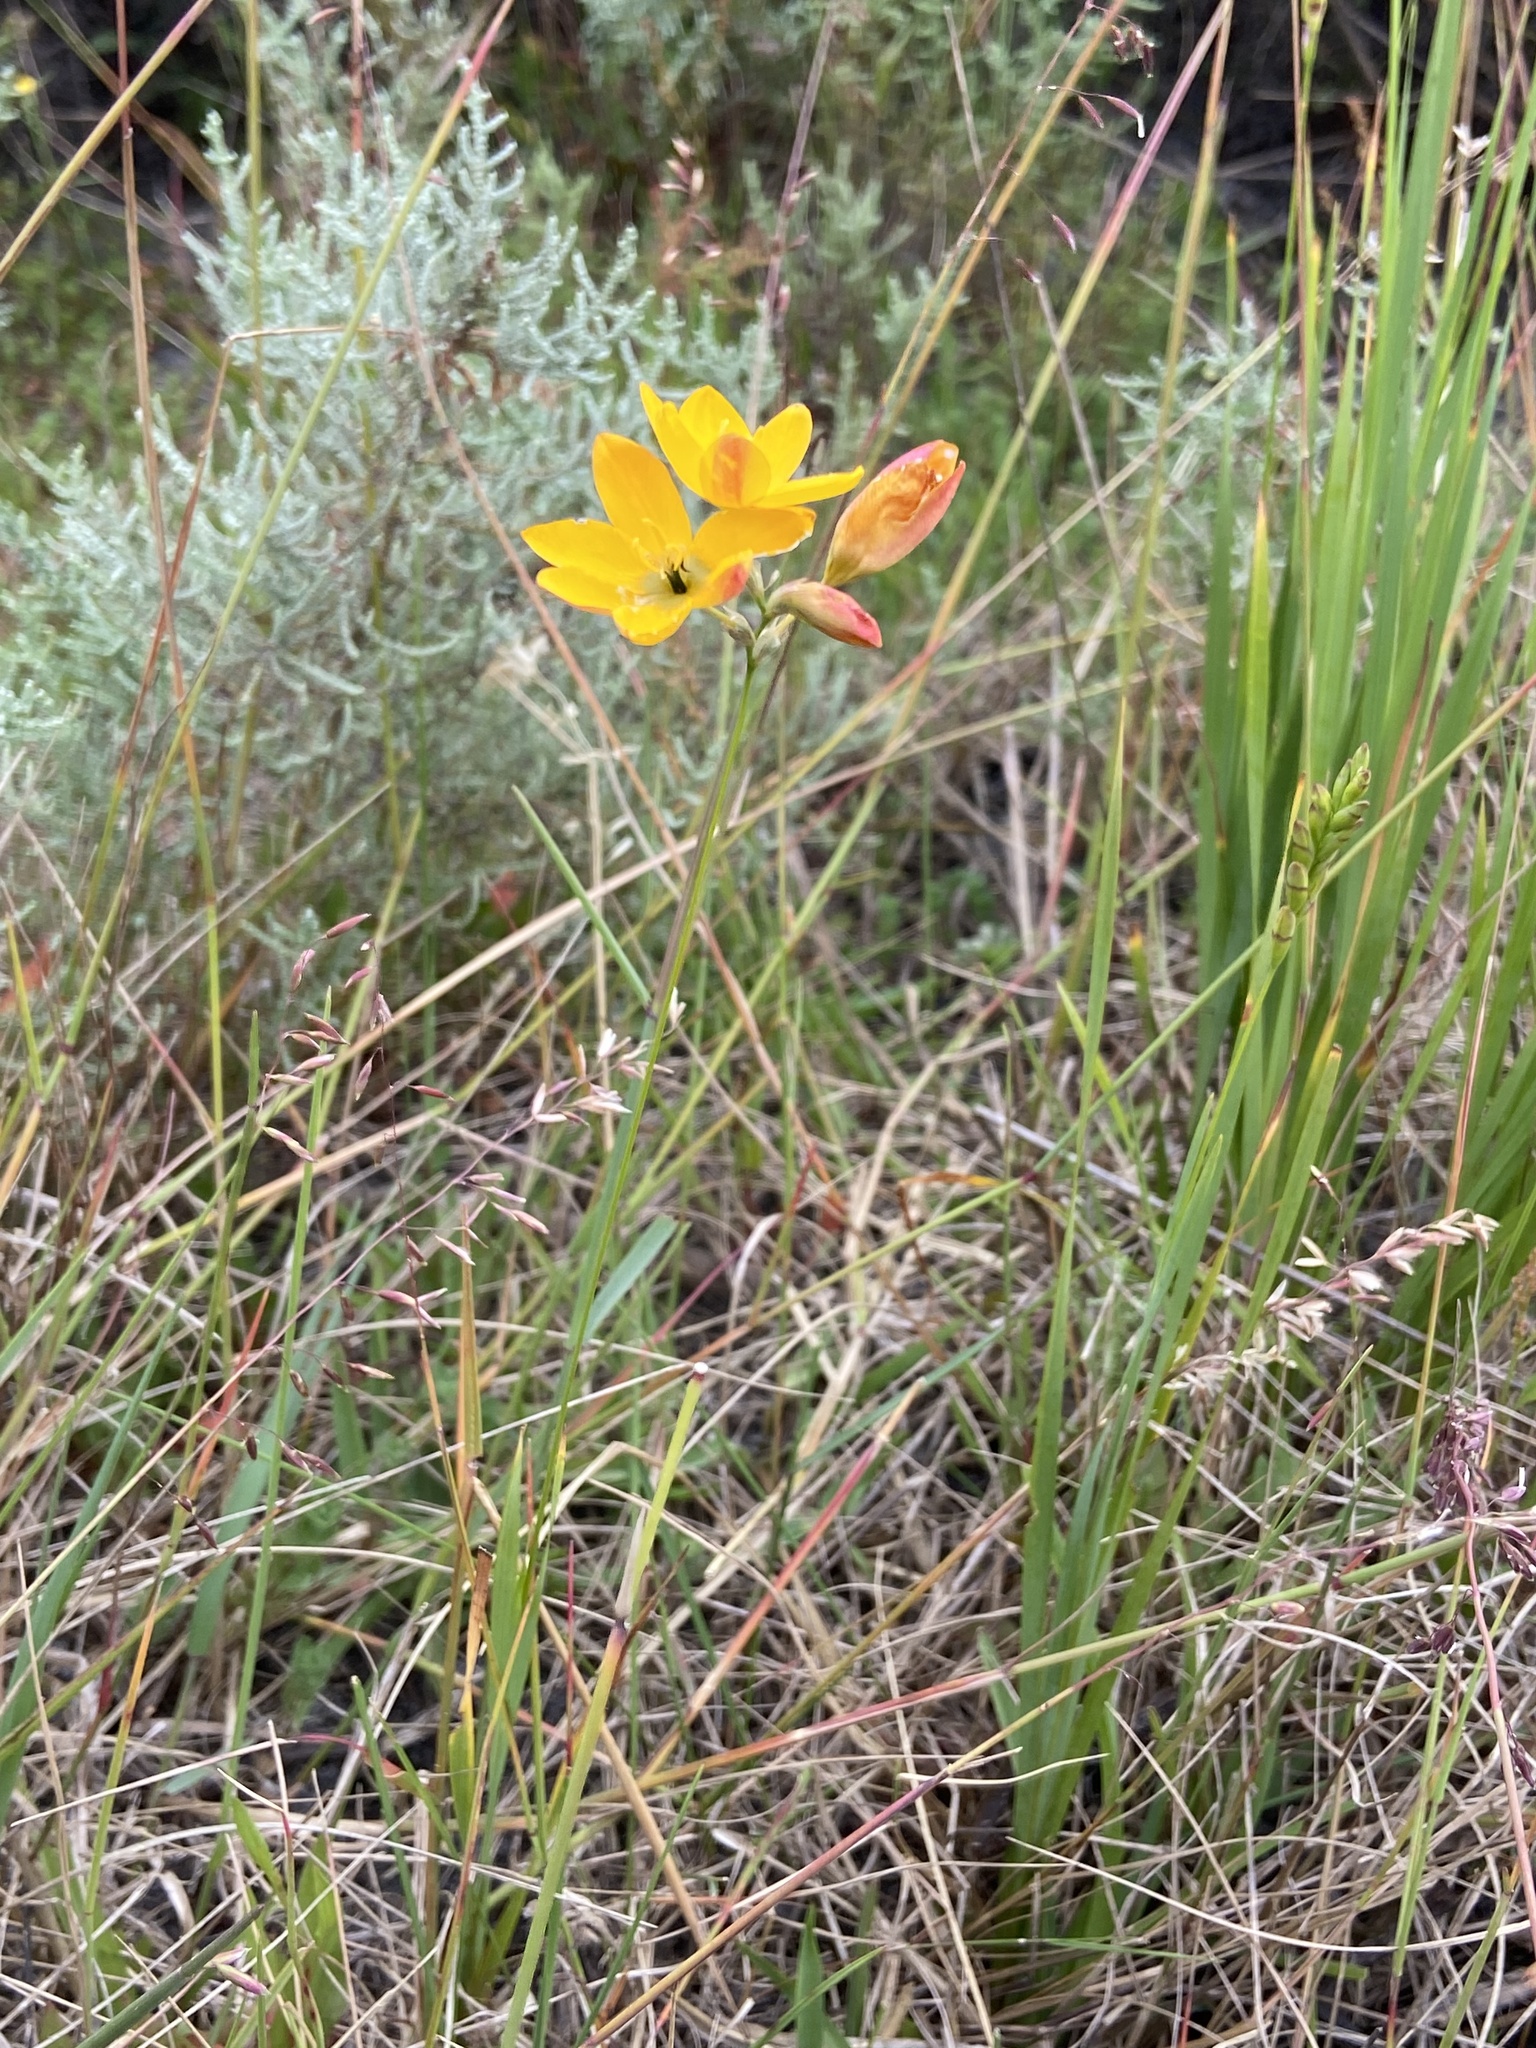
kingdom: Plantae
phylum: Tracheophyta
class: Liliopsida
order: Asparagales
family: Iridaceae
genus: Ixia
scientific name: Ixia dubia
